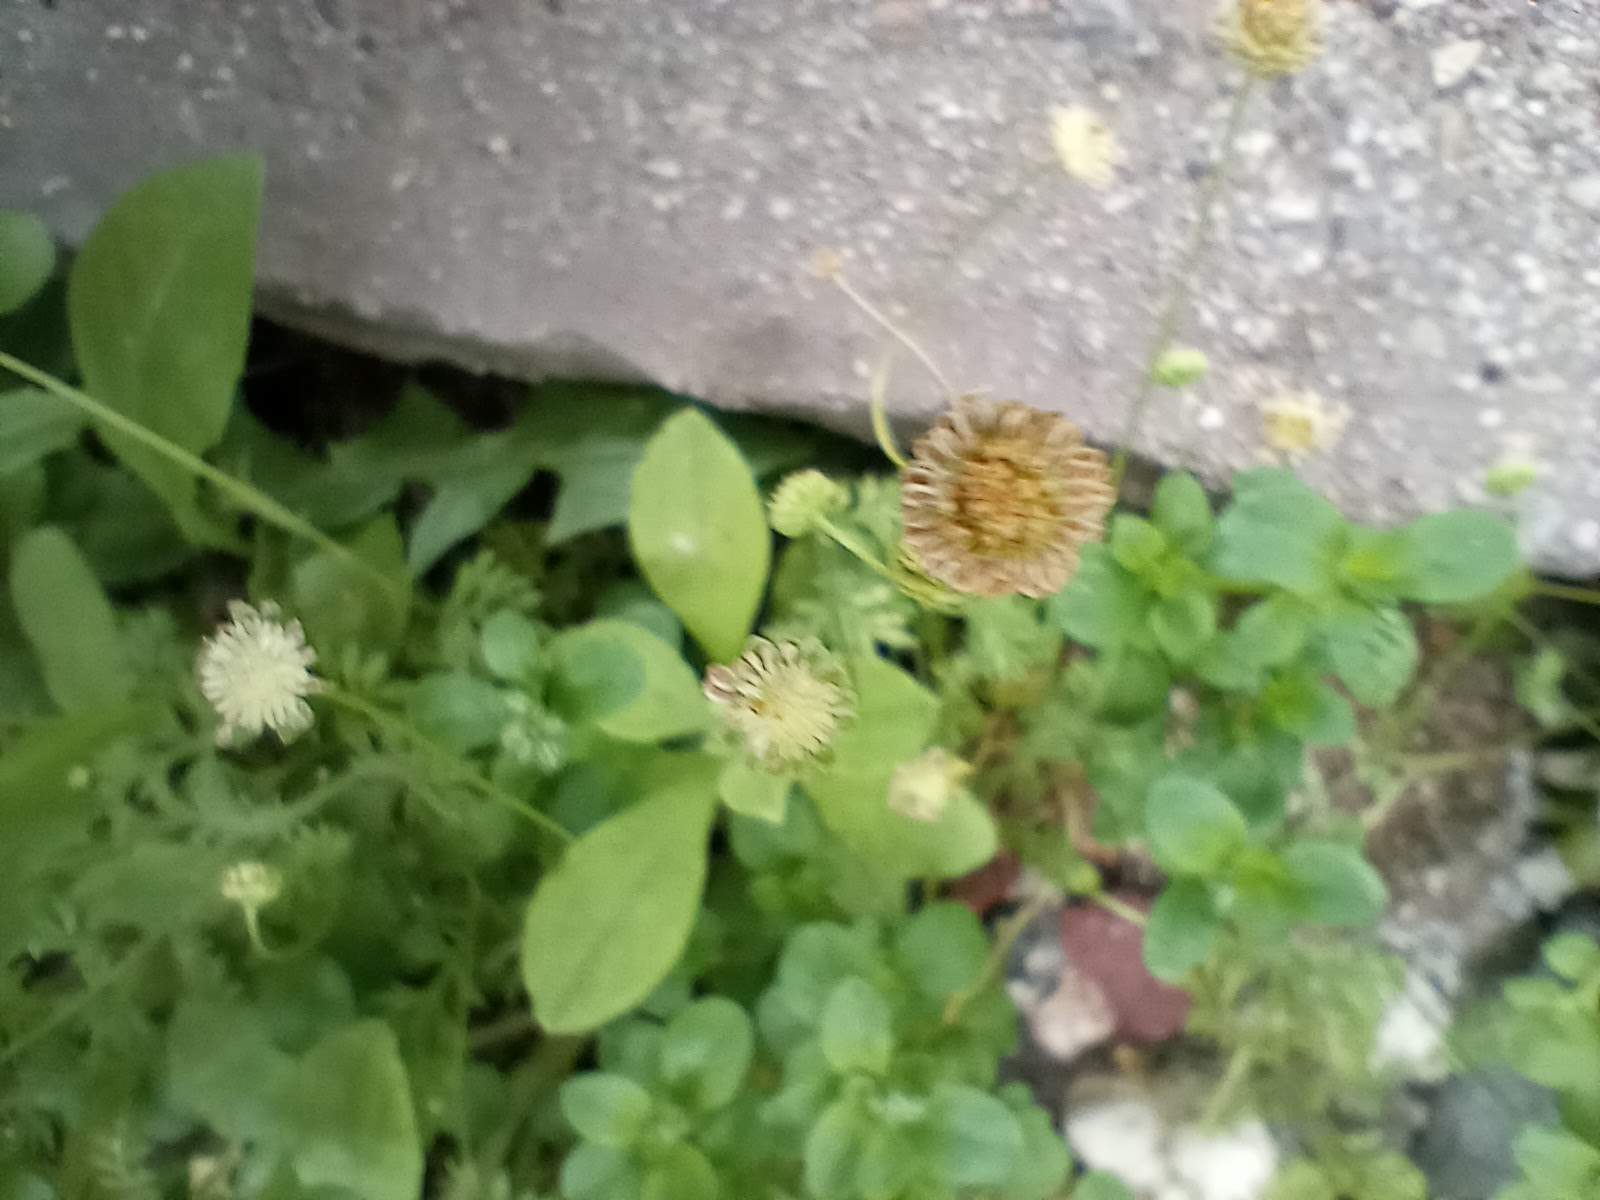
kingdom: Plantae
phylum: Tracheophyta
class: Magnoliopsida
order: Asterales
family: Asteraceae
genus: Cotula
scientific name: Cotula australis
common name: Australian waterbuttons
